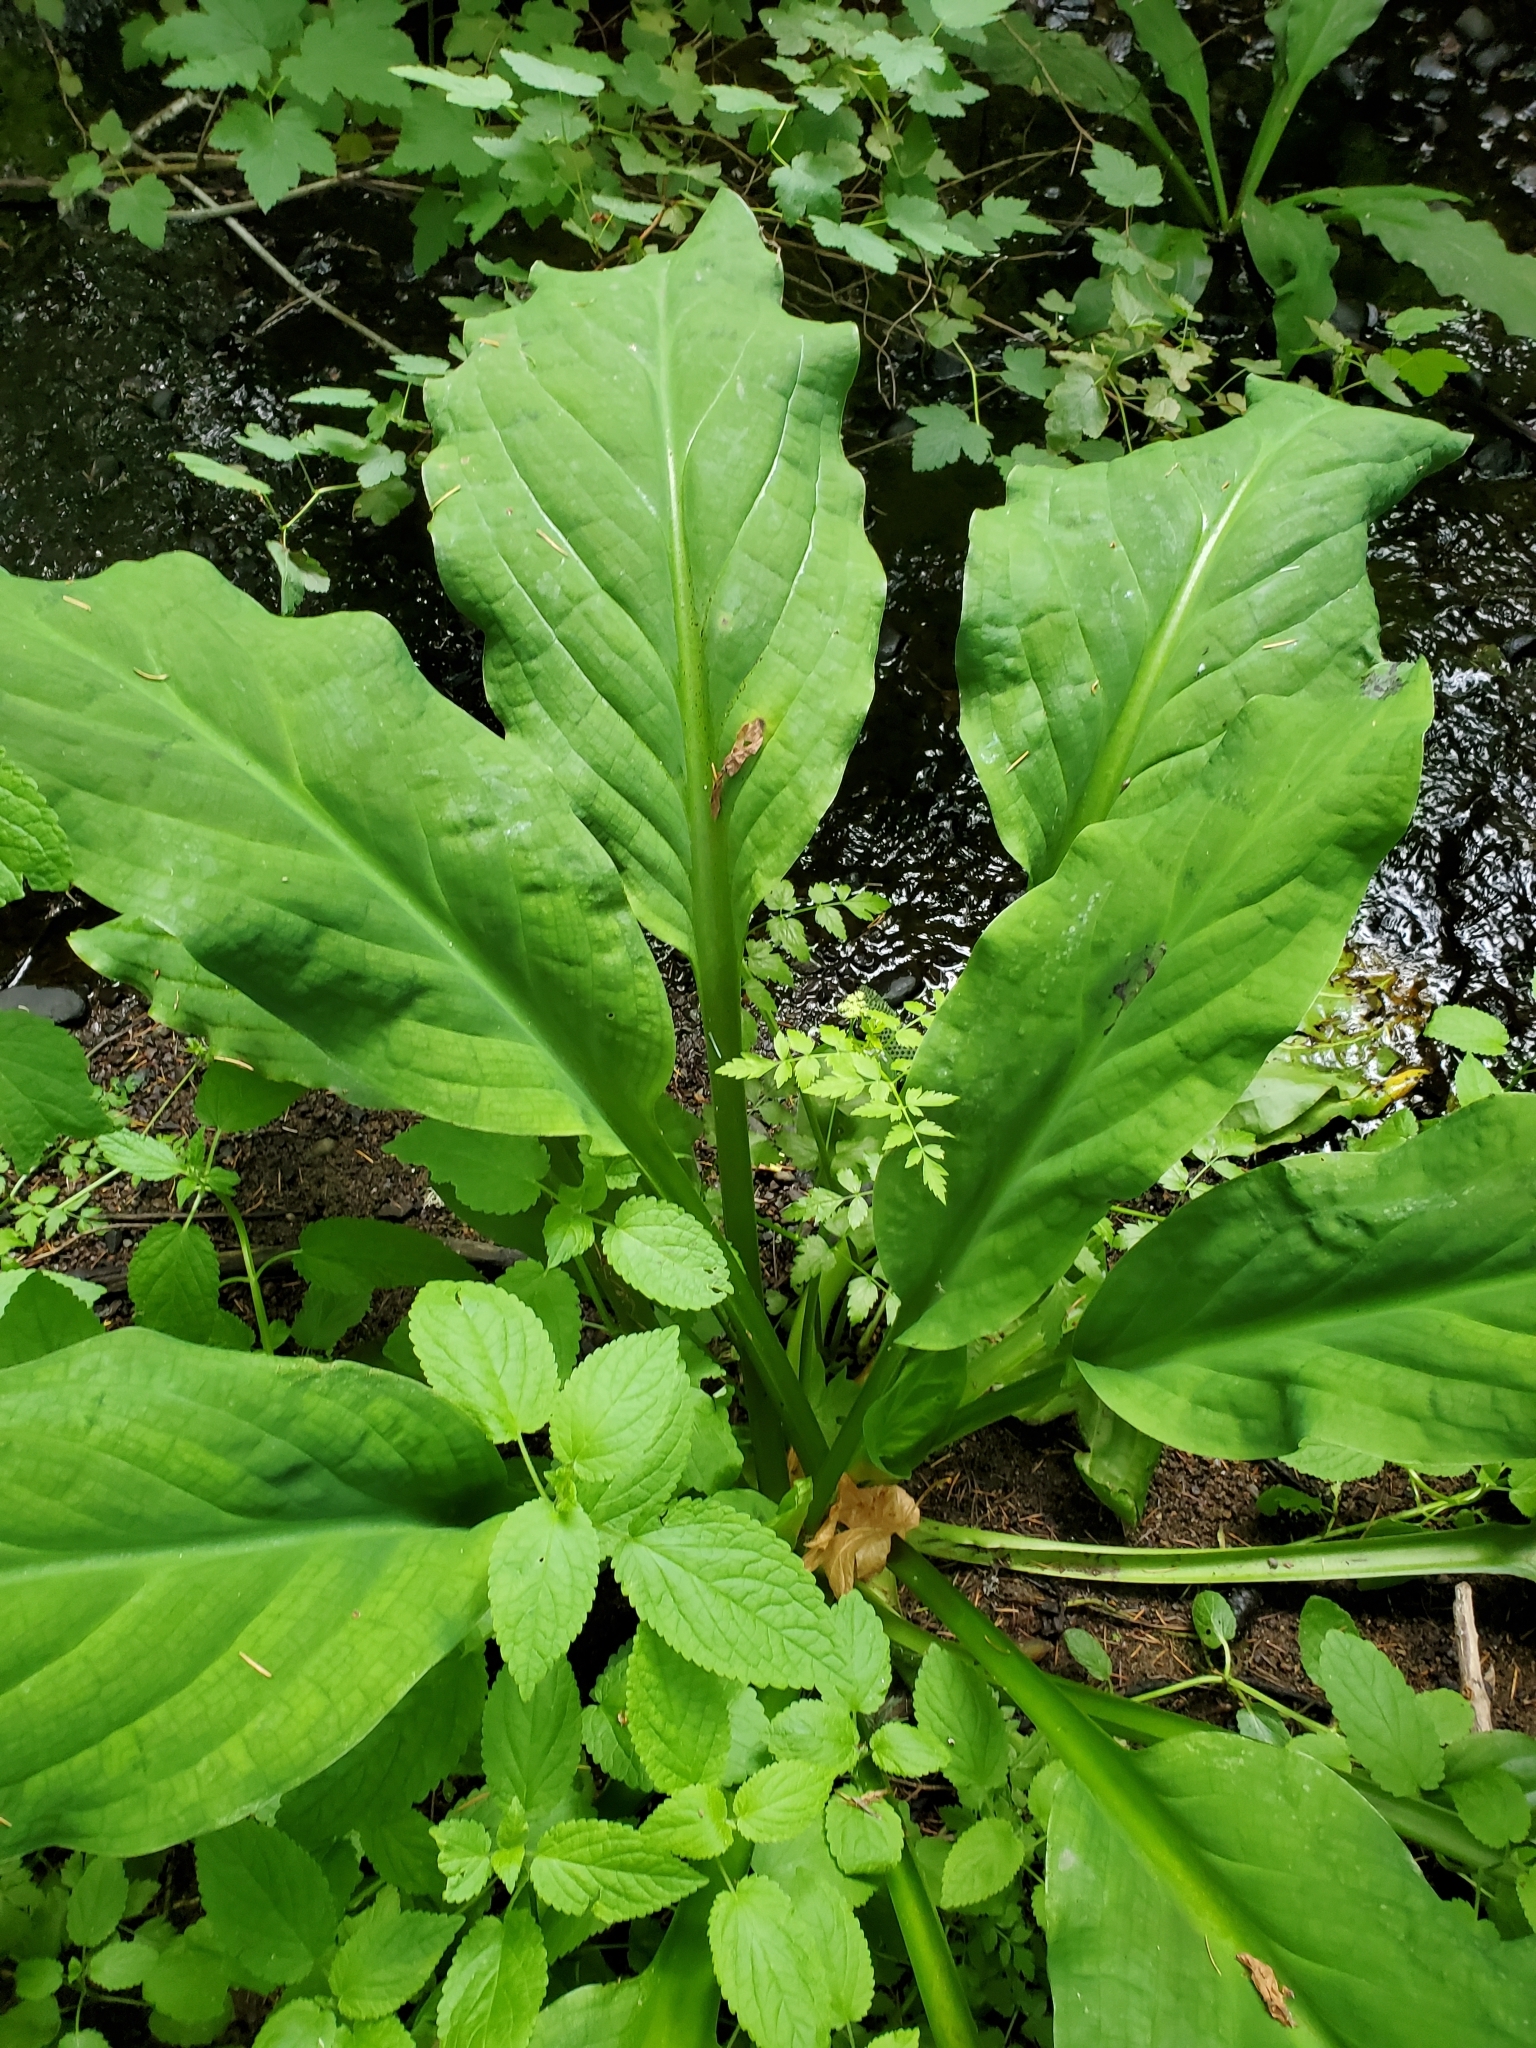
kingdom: Plantae
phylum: Tracheophyta
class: Liliopsida
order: Alismatales
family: Araceae
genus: Lysichiton
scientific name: Lysichiton americanus
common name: American skunk cabbage
